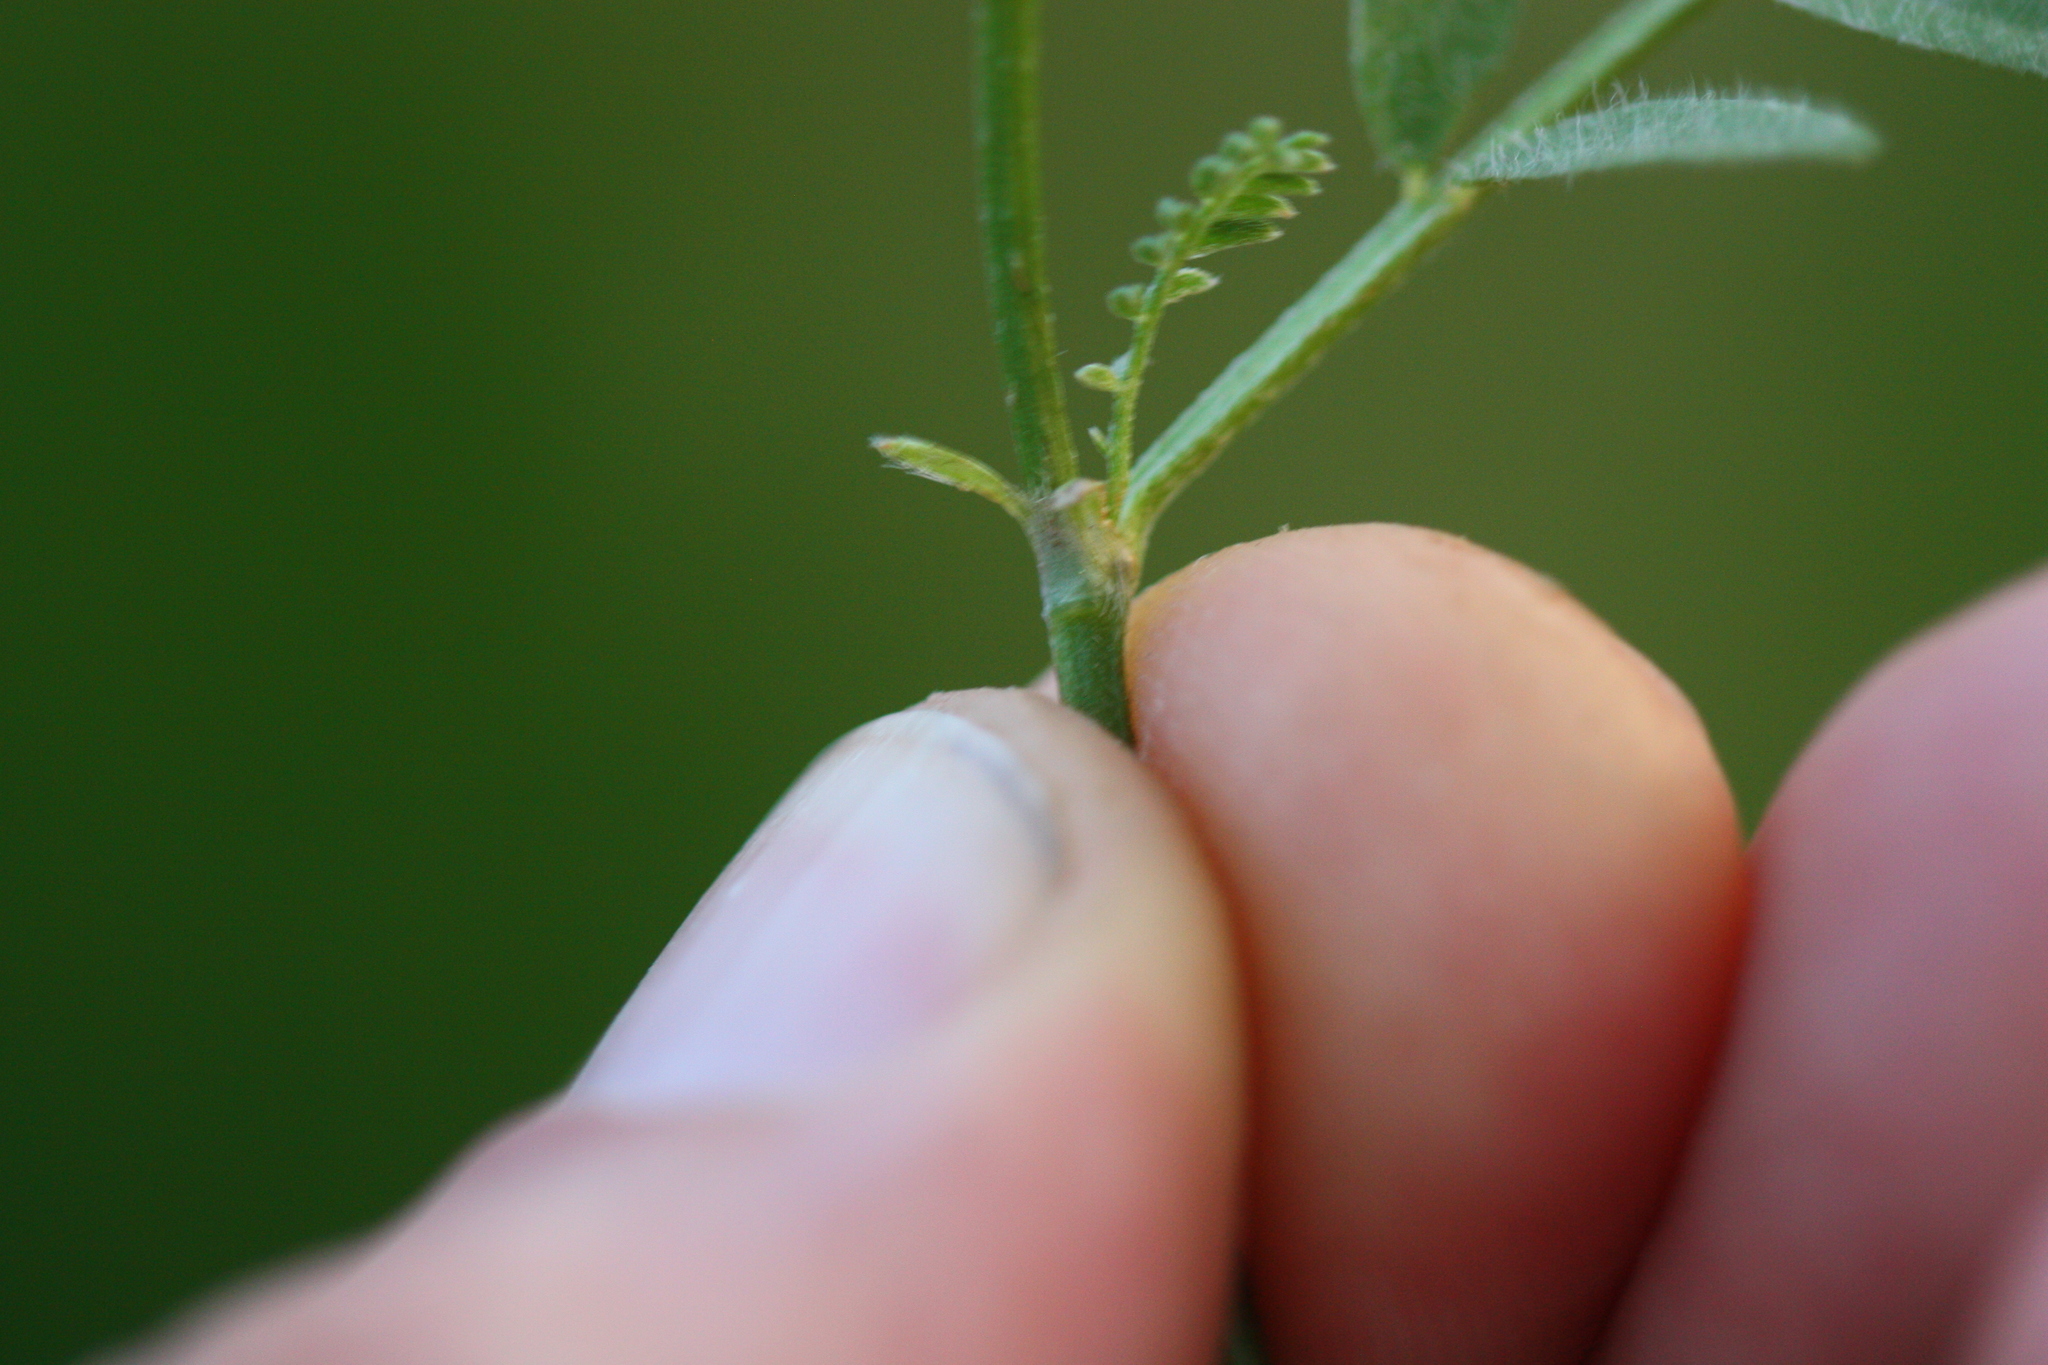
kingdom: Plantae
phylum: Tracheophyta
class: Magnoliopsida
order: Fabales
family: Fabaceae
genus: Amorpha
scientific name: Amorpha canescens
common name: Leadplant
